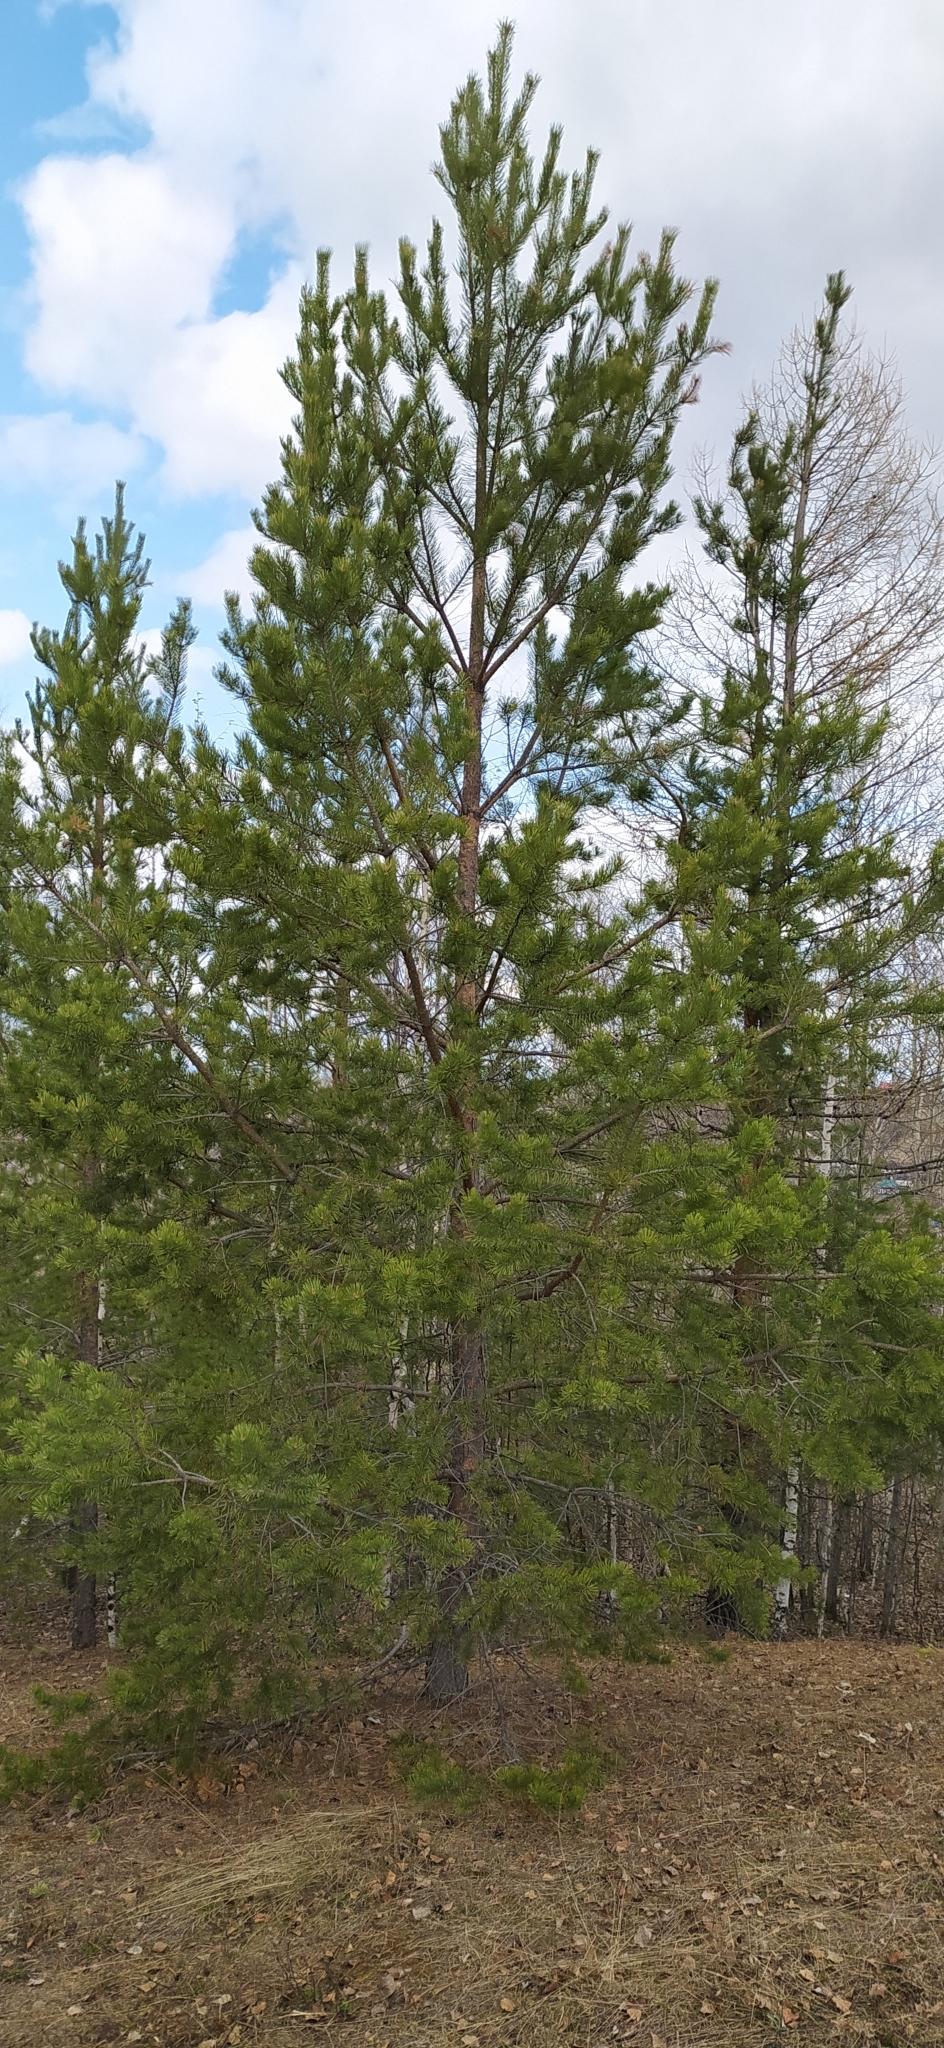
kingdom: Plantae
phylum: Tracheophyta
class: Pinopsida
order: Pinales
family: Pinaceae
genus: Pinus
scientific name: Pinus sylvestris
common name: Scots pine
